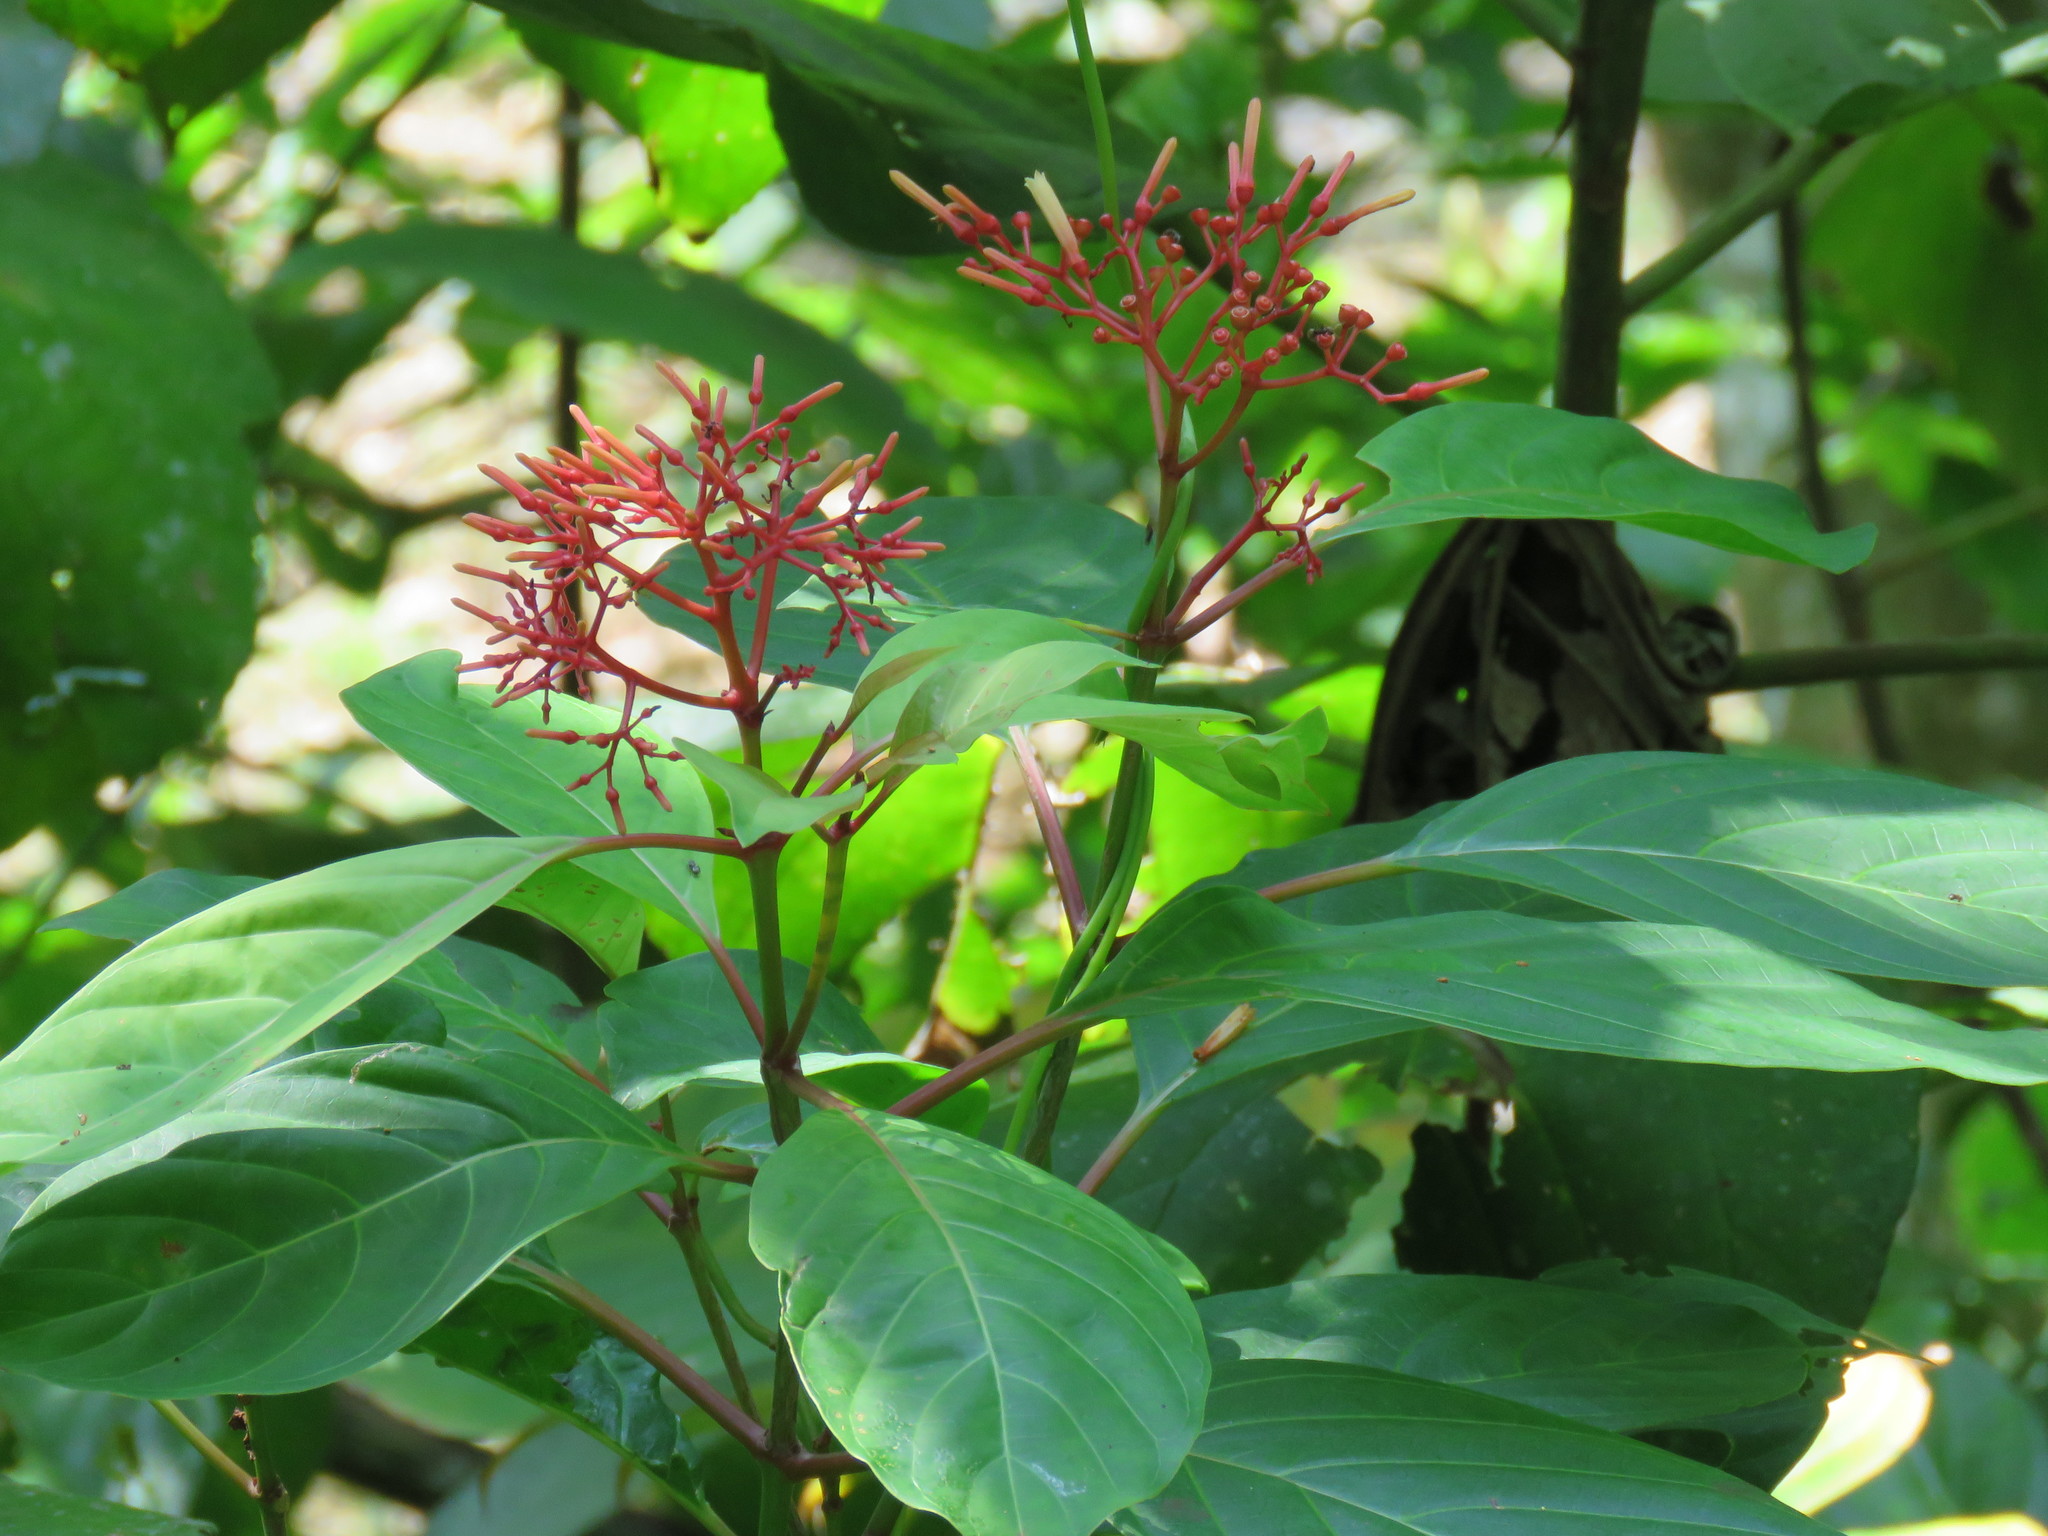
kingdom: Plantae
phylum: Tracheophyta
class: Magnoliopsida
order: Gentianales
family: Rubiaceae
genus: Hamelia
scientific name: Hamelia longipes
